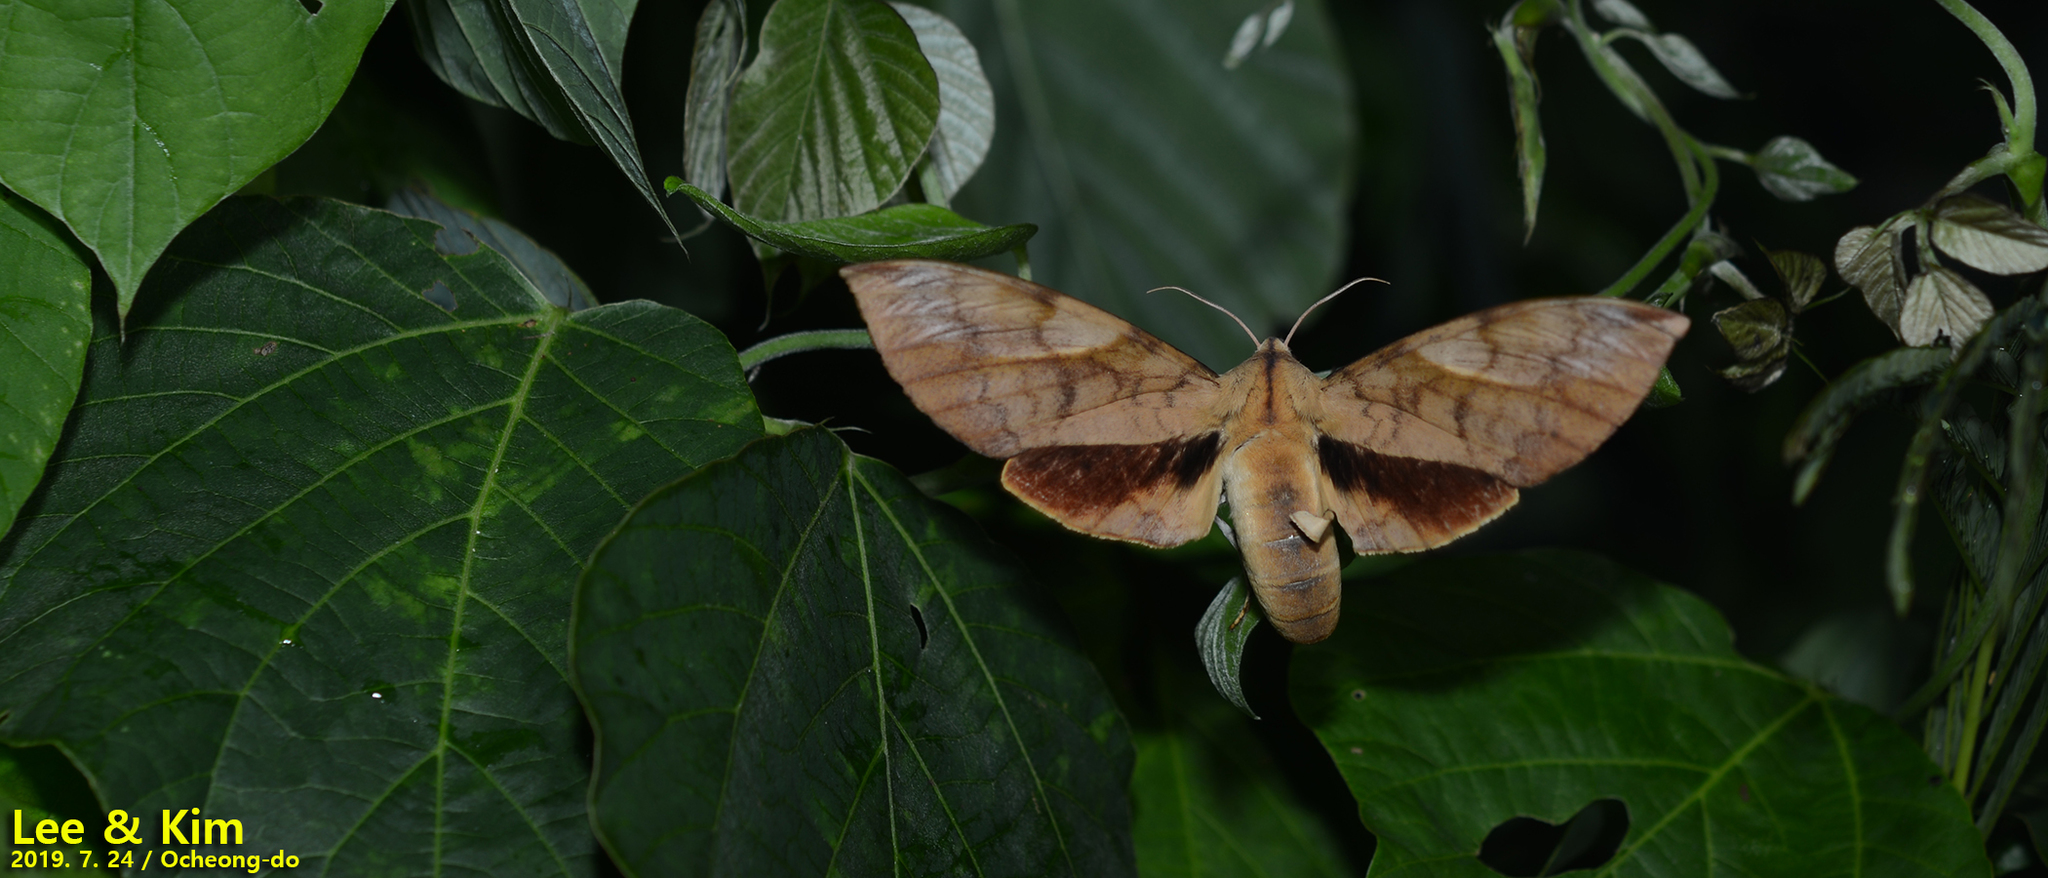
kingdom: Animalia
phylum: Arthropoda
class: Insecta
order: Lepidoptera
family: Sphingidae
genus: Clanis
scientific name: Clanis bilineata
